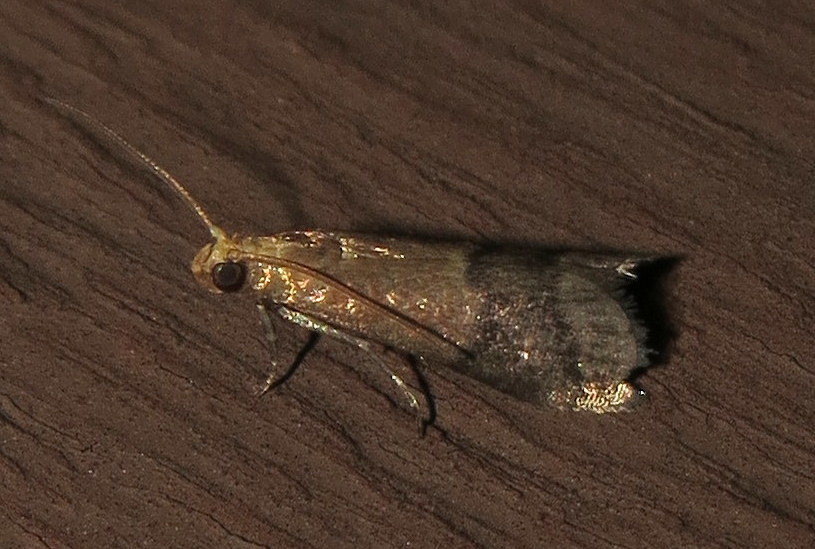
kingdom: Animalia
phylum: Arthropoda
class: Insecta
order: Lepidoptera
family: Pyralidae
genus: Eulogia
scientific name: Eulogia ochrifrontella
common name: Broad-banded eulogia moth
